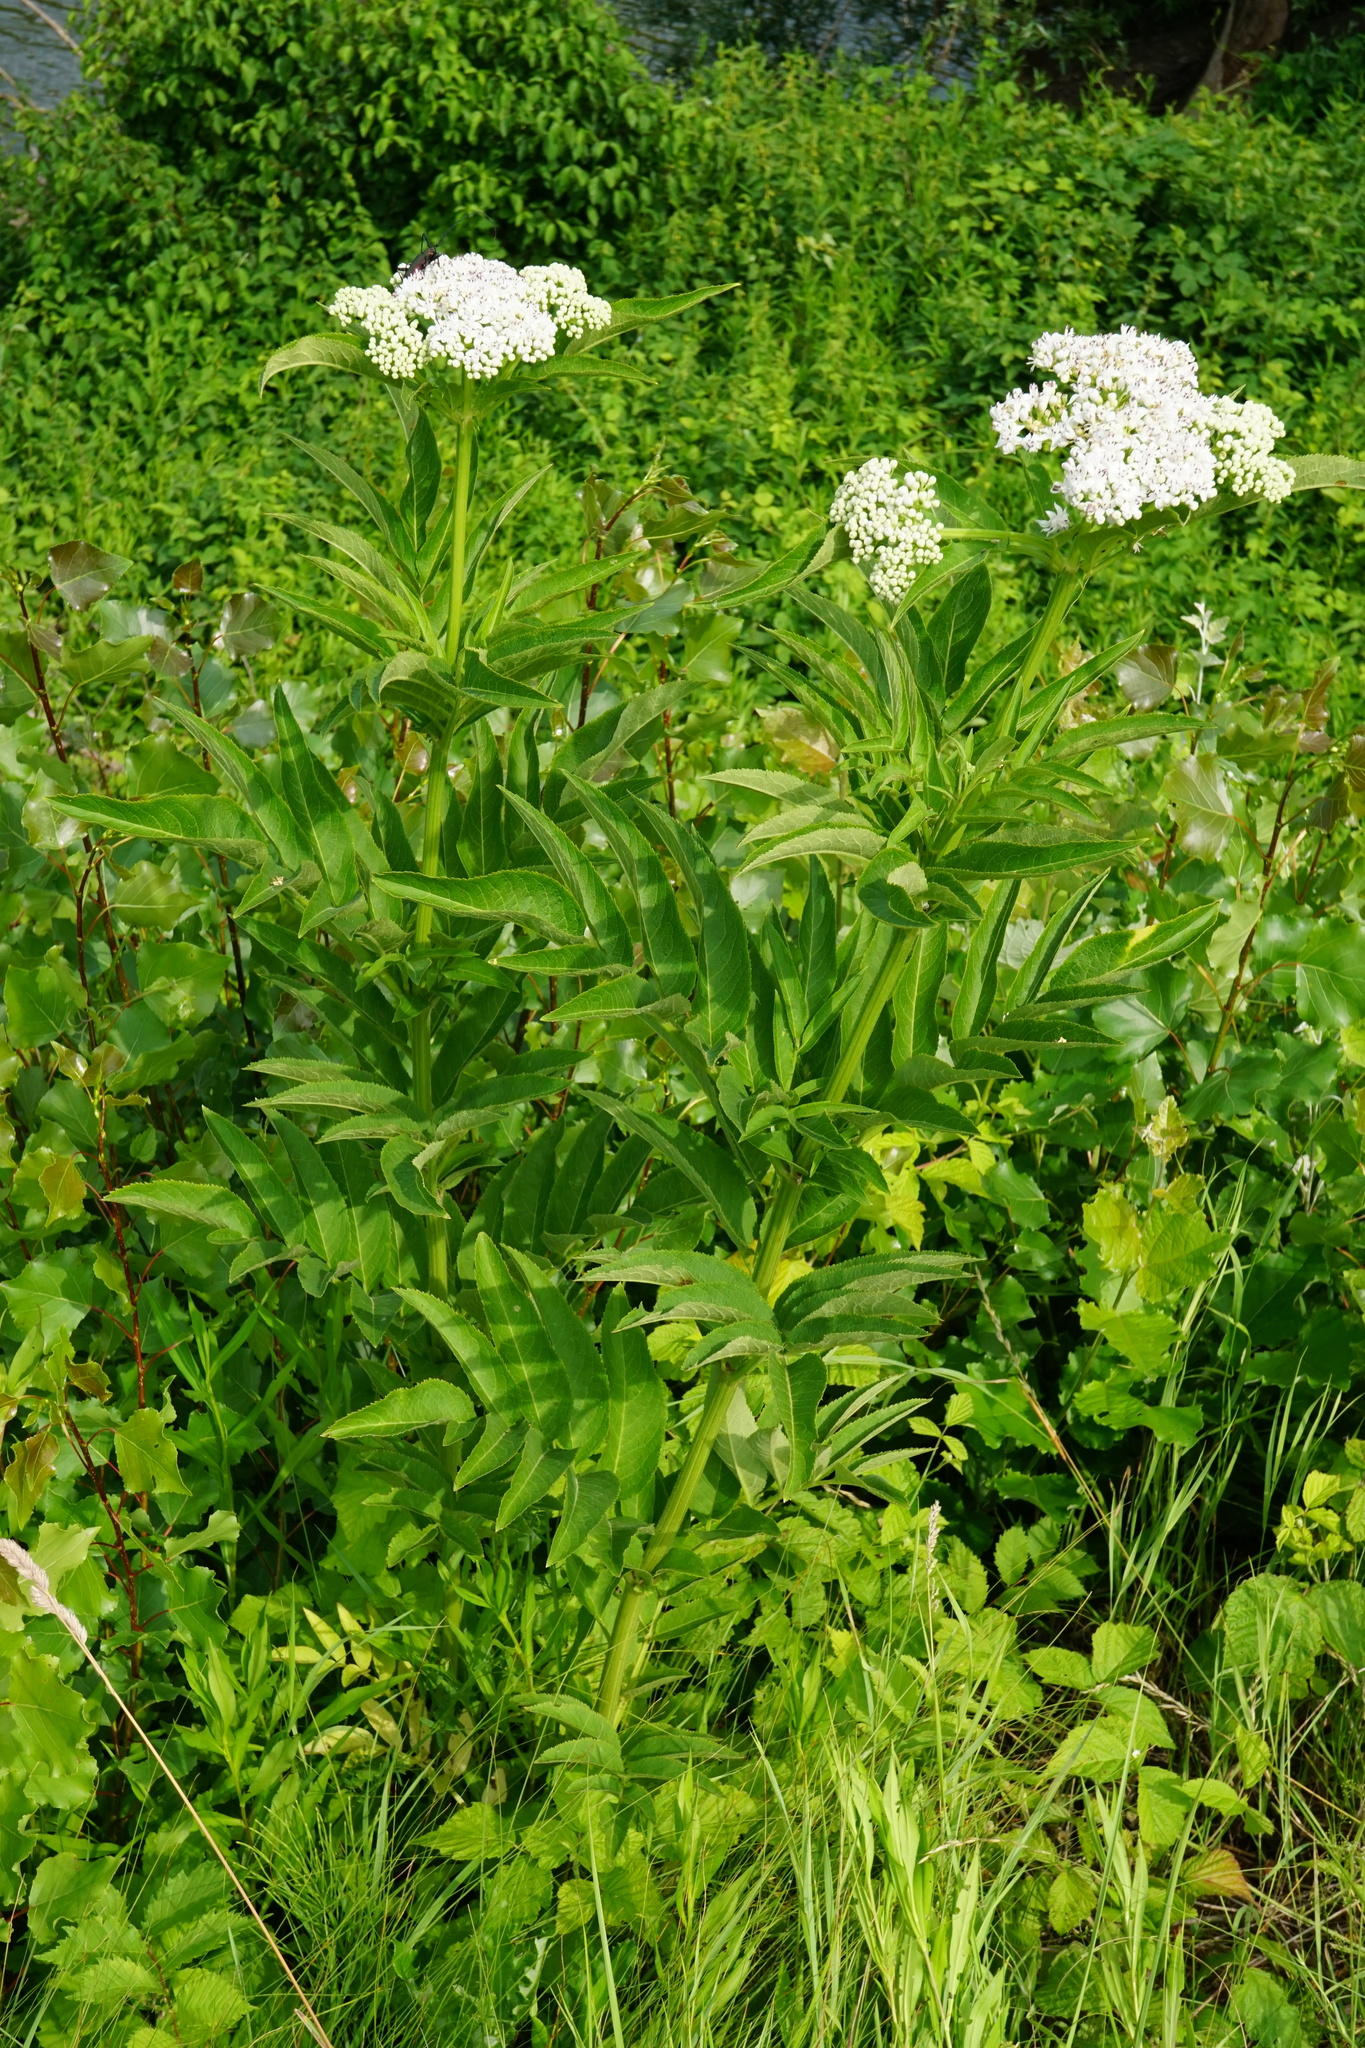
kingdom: Plantae
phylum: Tracheophyta
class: Magnoliopsida
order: Dipsacales
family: Viburnaceae
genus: Sambucus
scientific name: Sambucus ebulus
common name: Dwarf elder
